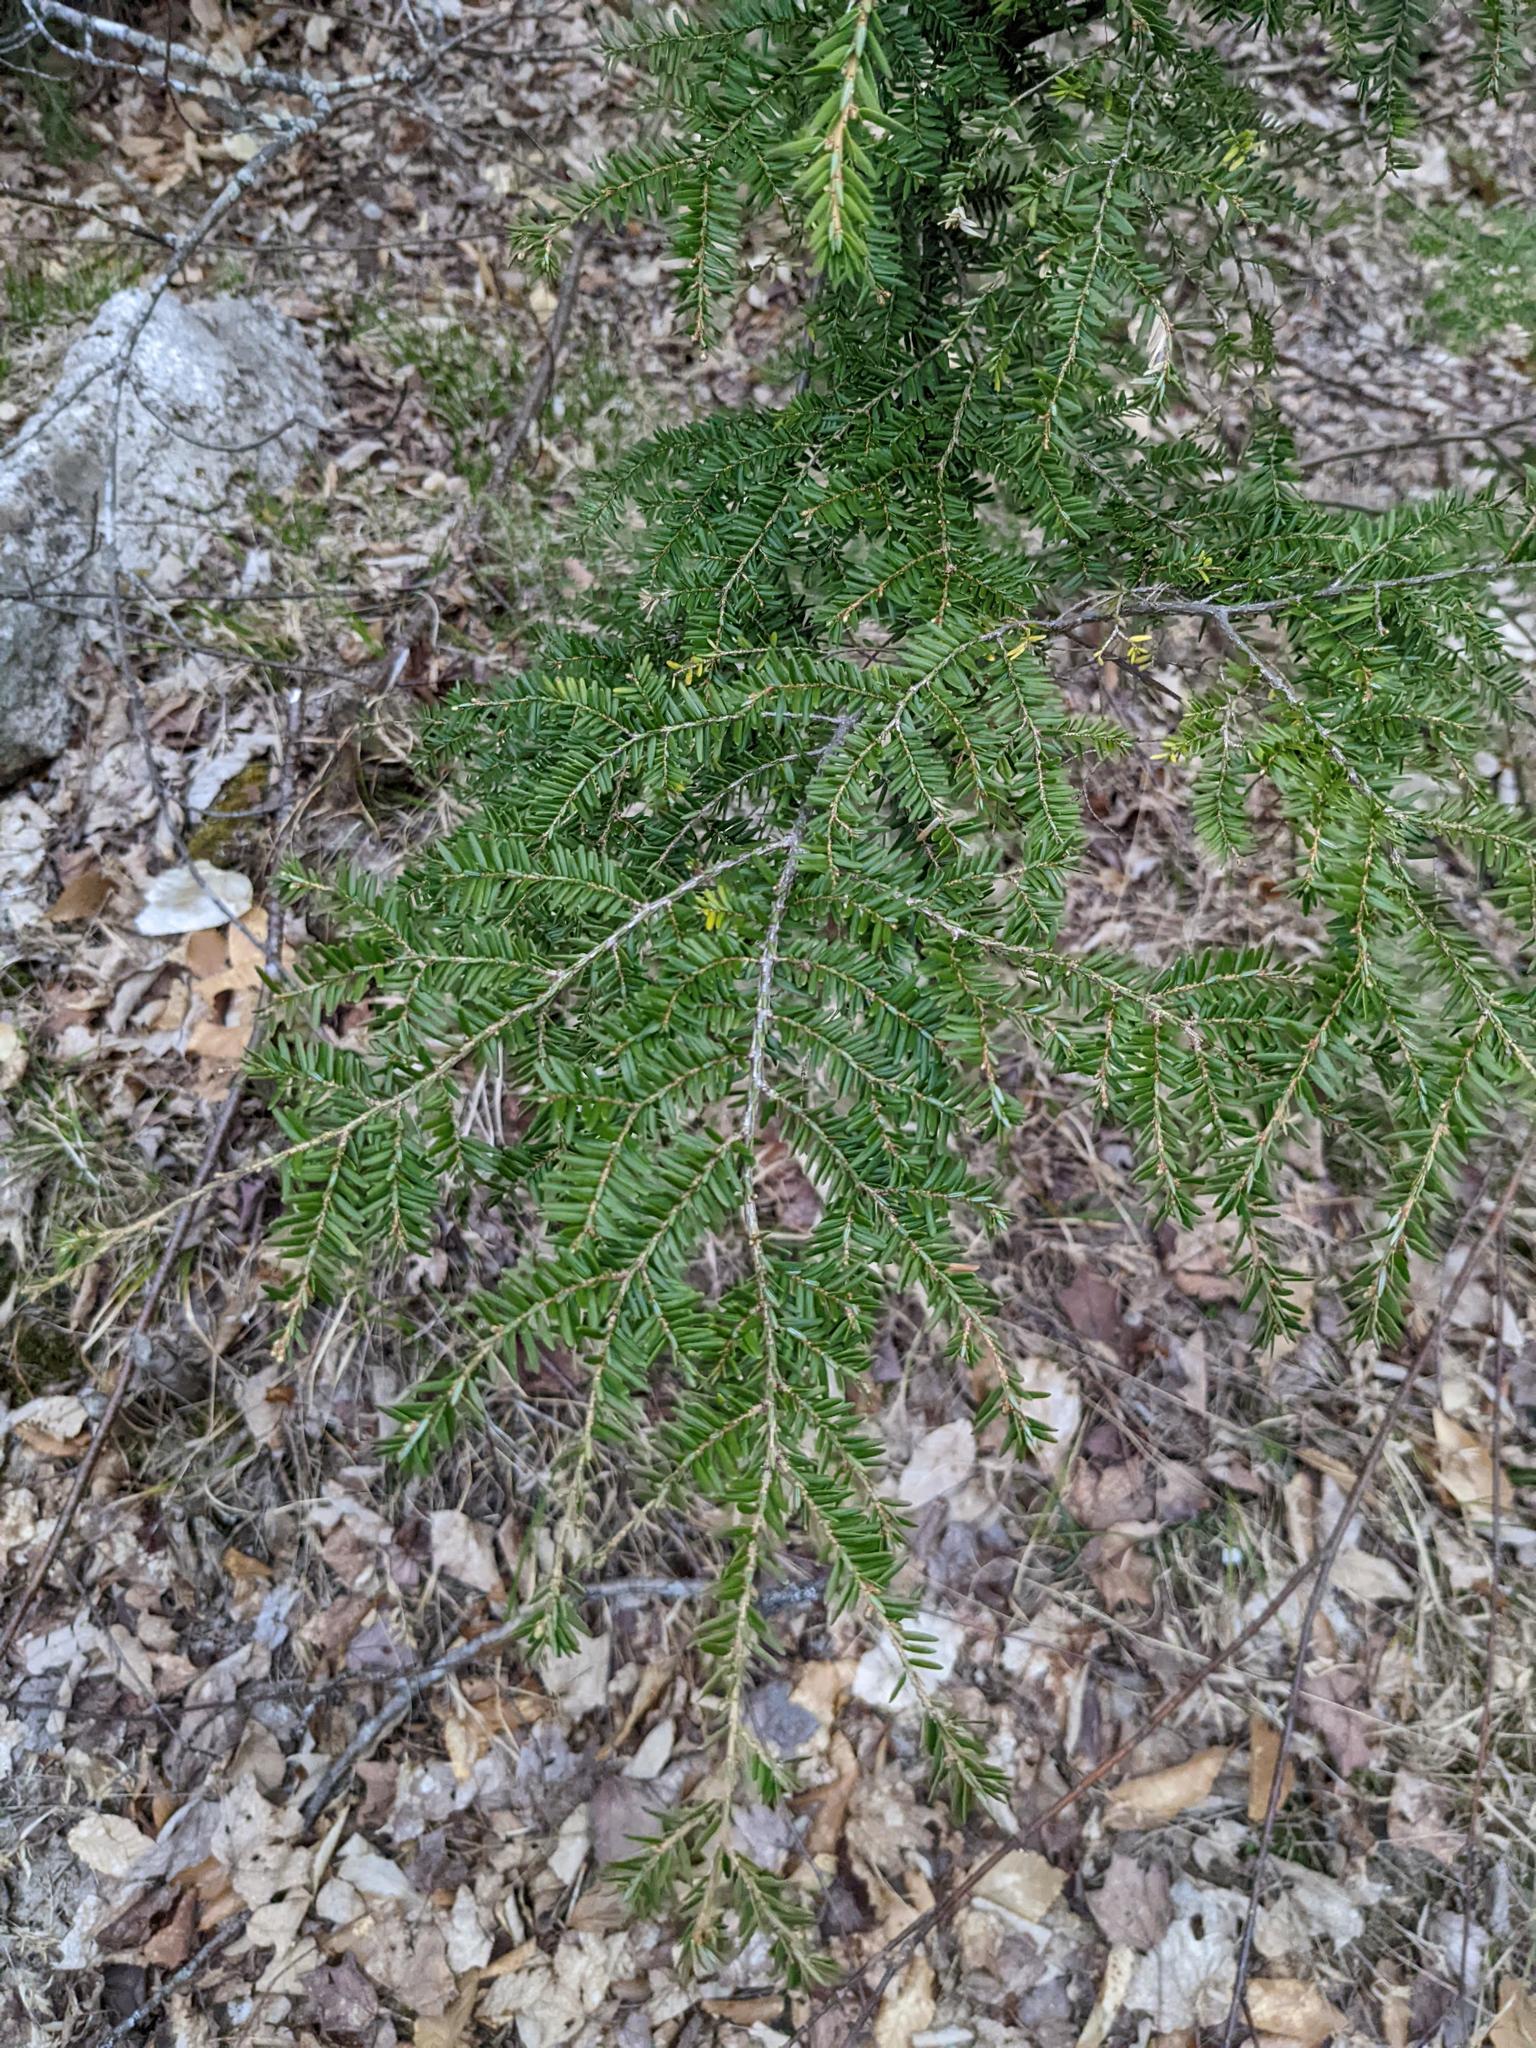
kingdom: Plantae
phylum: Tracheophyta
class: Pinopsida
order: Pinales
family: Pinaceae
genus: Tsuga
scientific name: Tsuga canadensis
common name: Eastern hemlock
